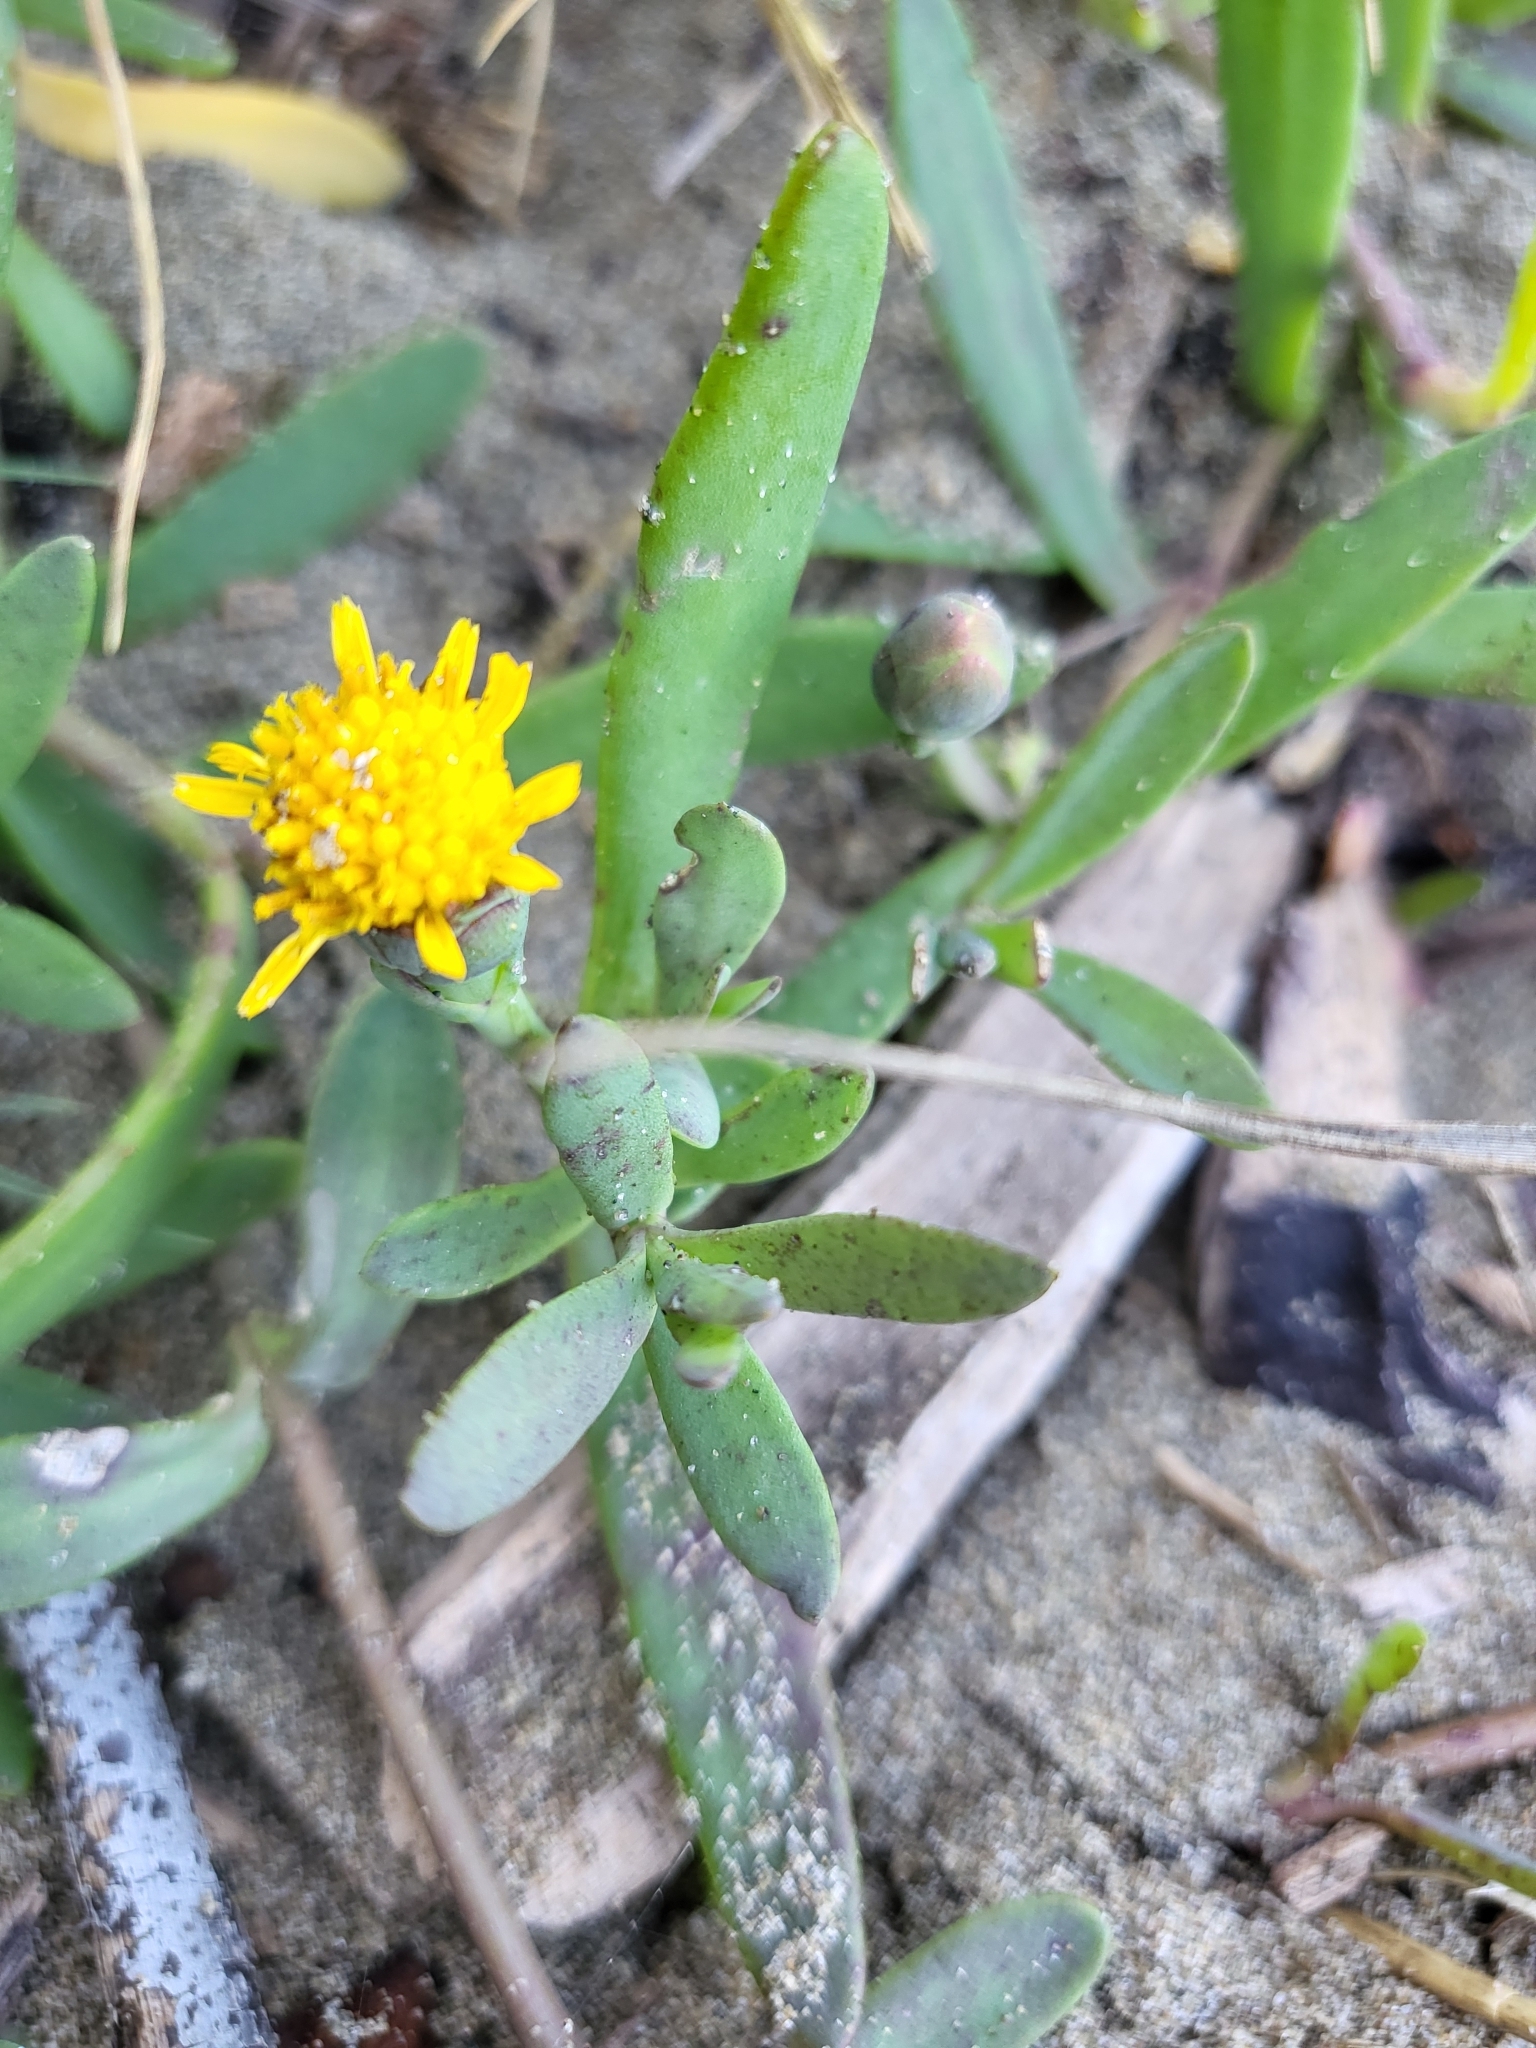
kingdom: Plantae
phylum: Tracheophyta
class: Magnoliopsida
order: Asterales
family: Asteraceae
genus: Jaumea
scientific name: Jaumea carnosa
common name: Fleshy jaumea
